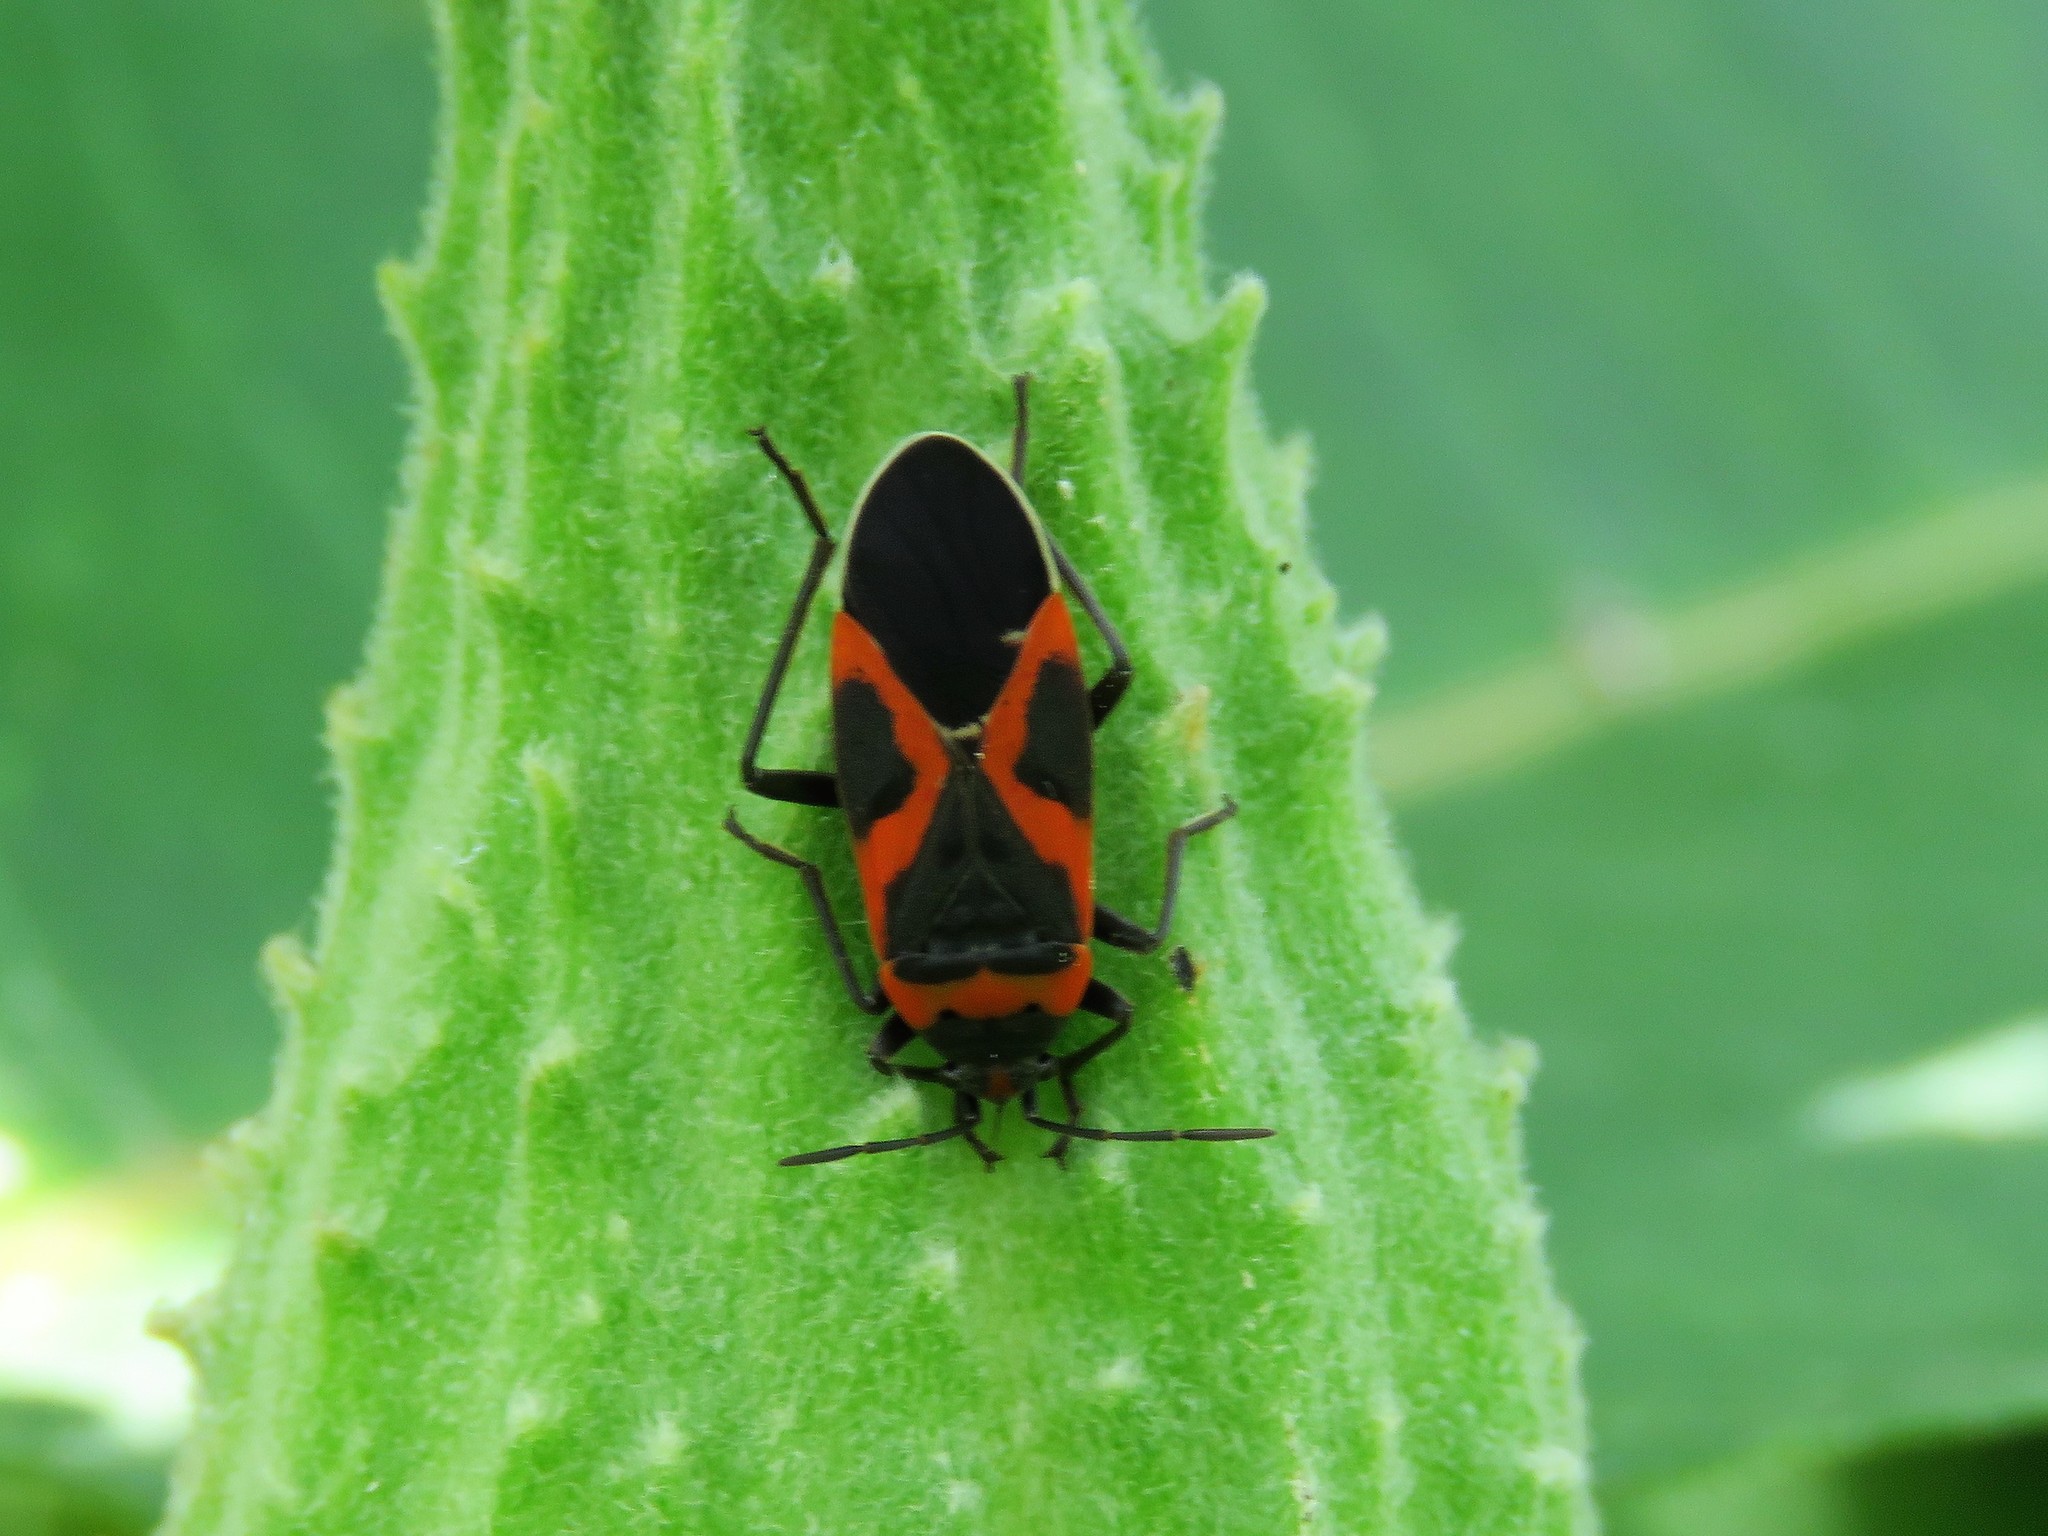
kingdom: Animalia
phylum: Arthropoda
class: Insecta
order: Hemiptera
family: Lygaeidae
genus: Lygaeus
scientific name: Lygaeus kalmii
